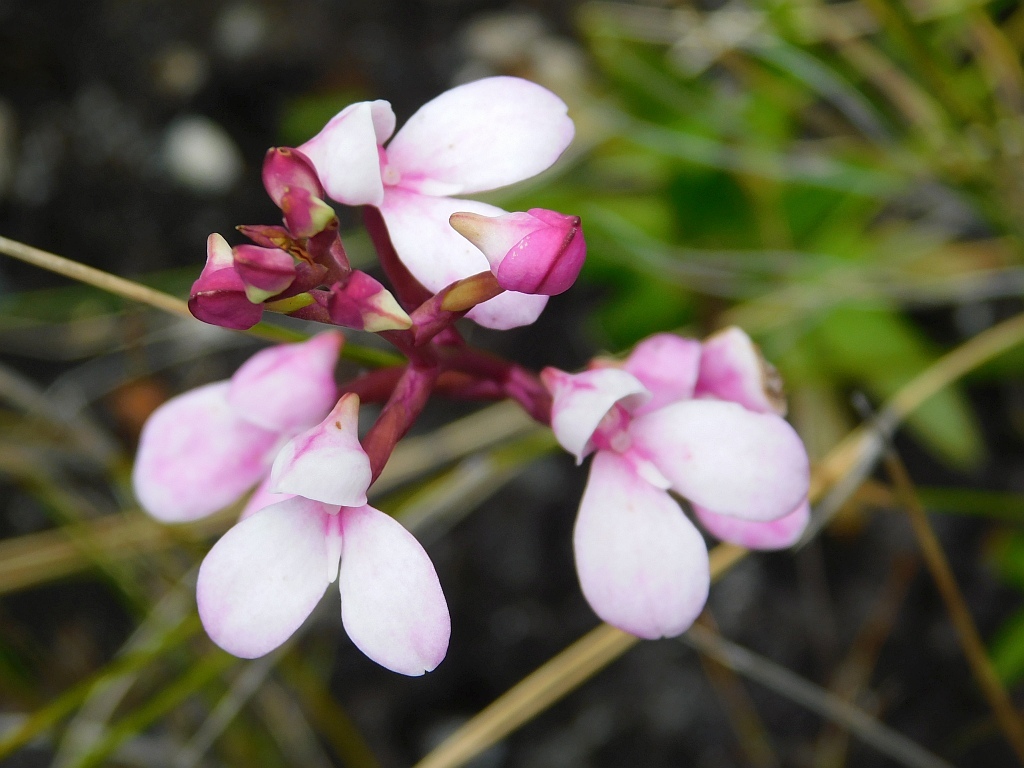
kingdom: Plantae
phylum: Tracheophyta
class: Liliopsida
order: Asparagales
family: Orchidaceae
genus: Disa
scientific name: Disa tripetaloides
